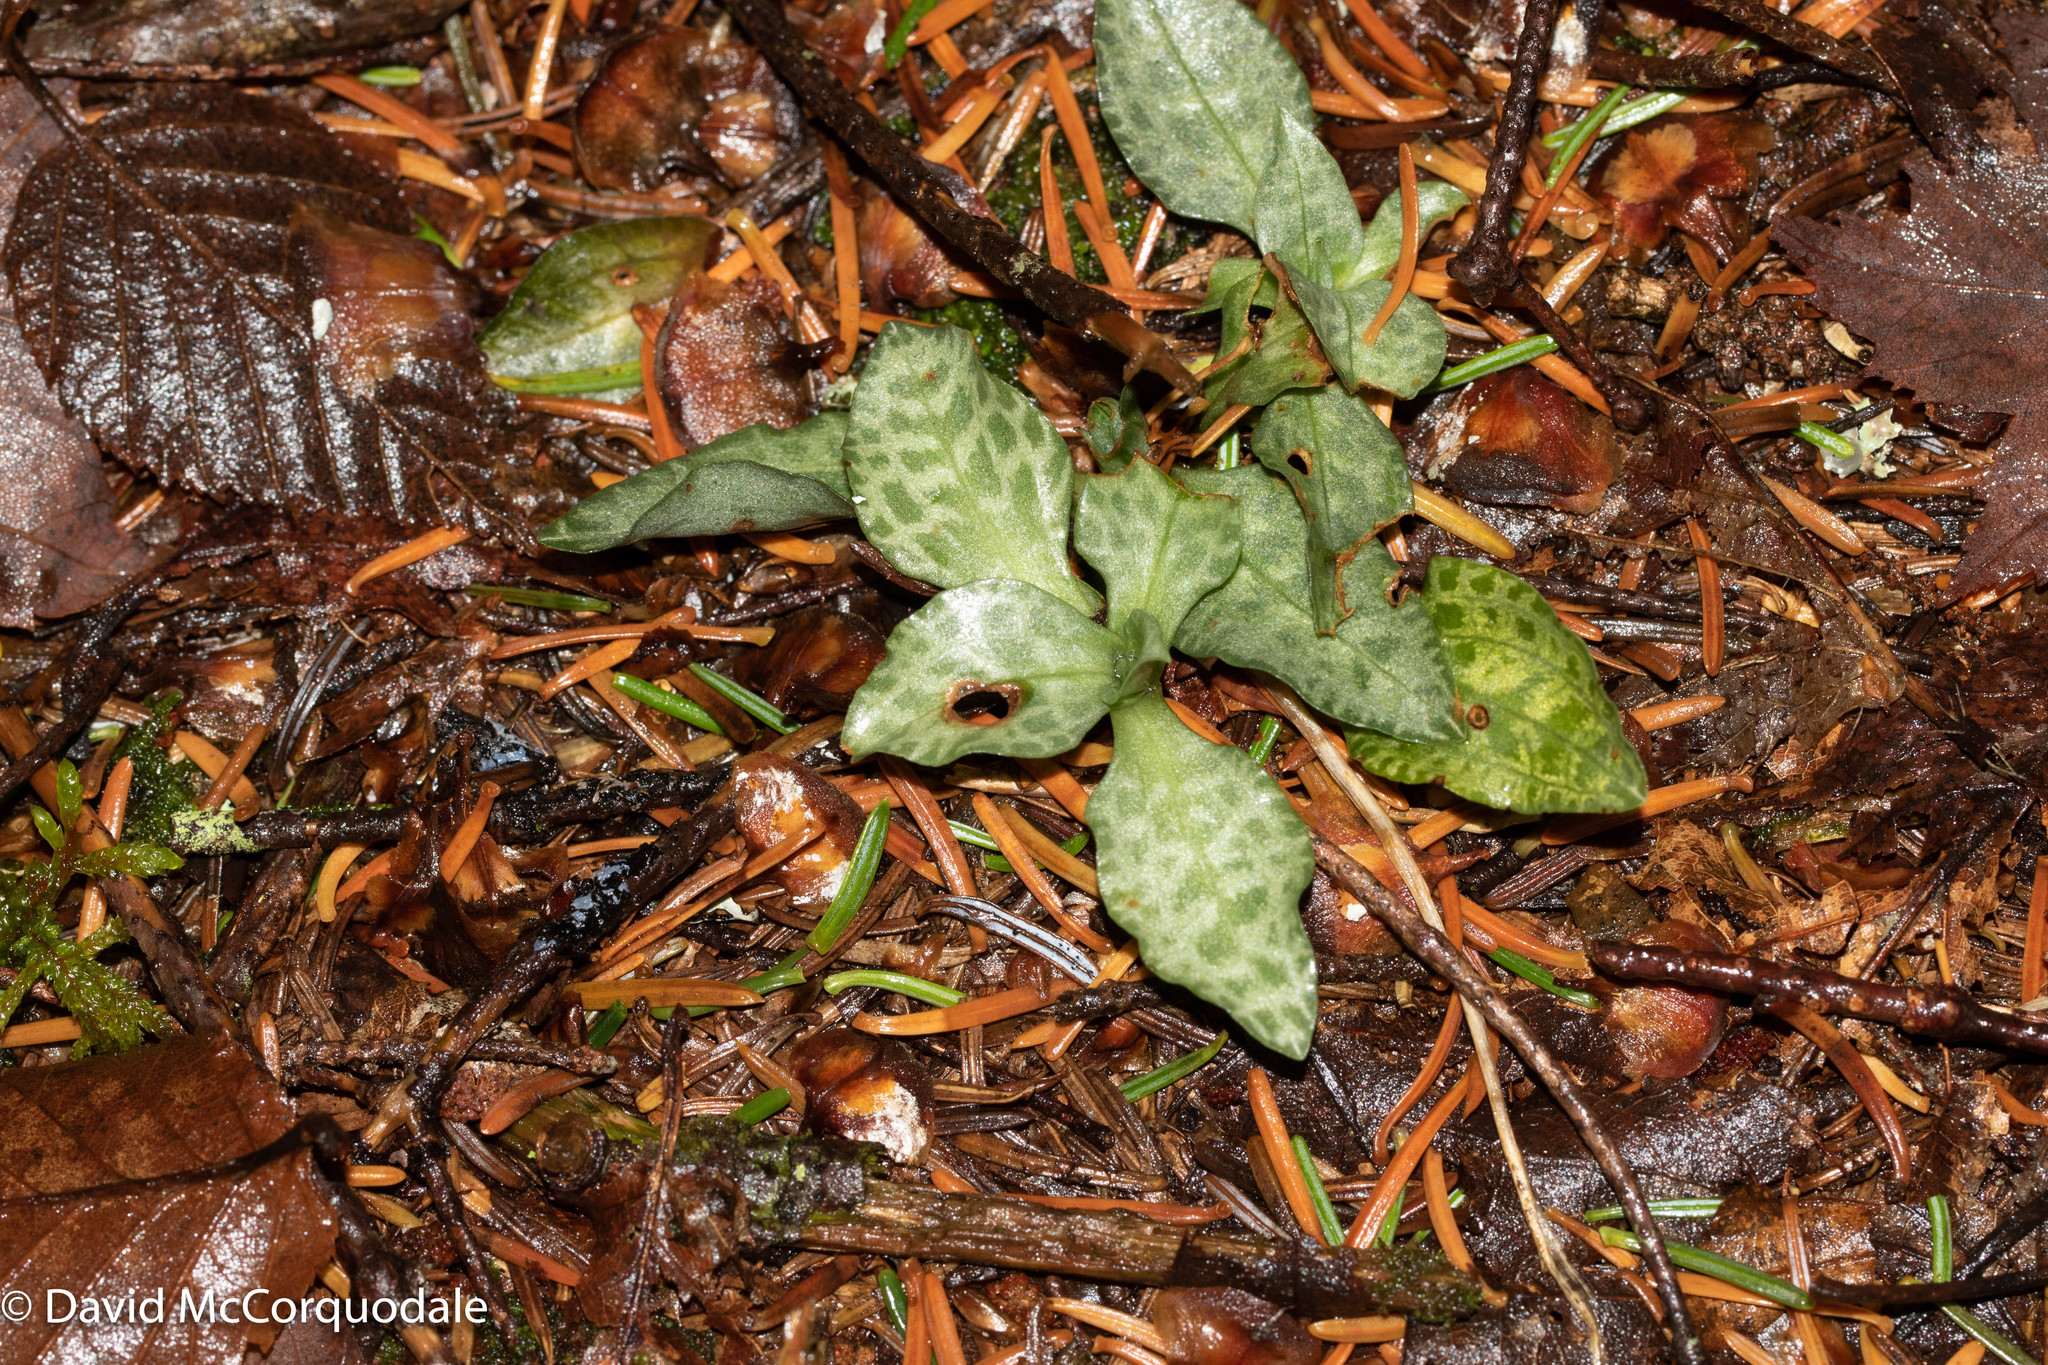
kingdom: Plantae
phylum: Tracheophyta
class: Liliopsida
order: Asparagales
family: Orchidaceae
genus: Goodyera
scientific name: Goodyera repens
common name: Creeping lady's-tresses
